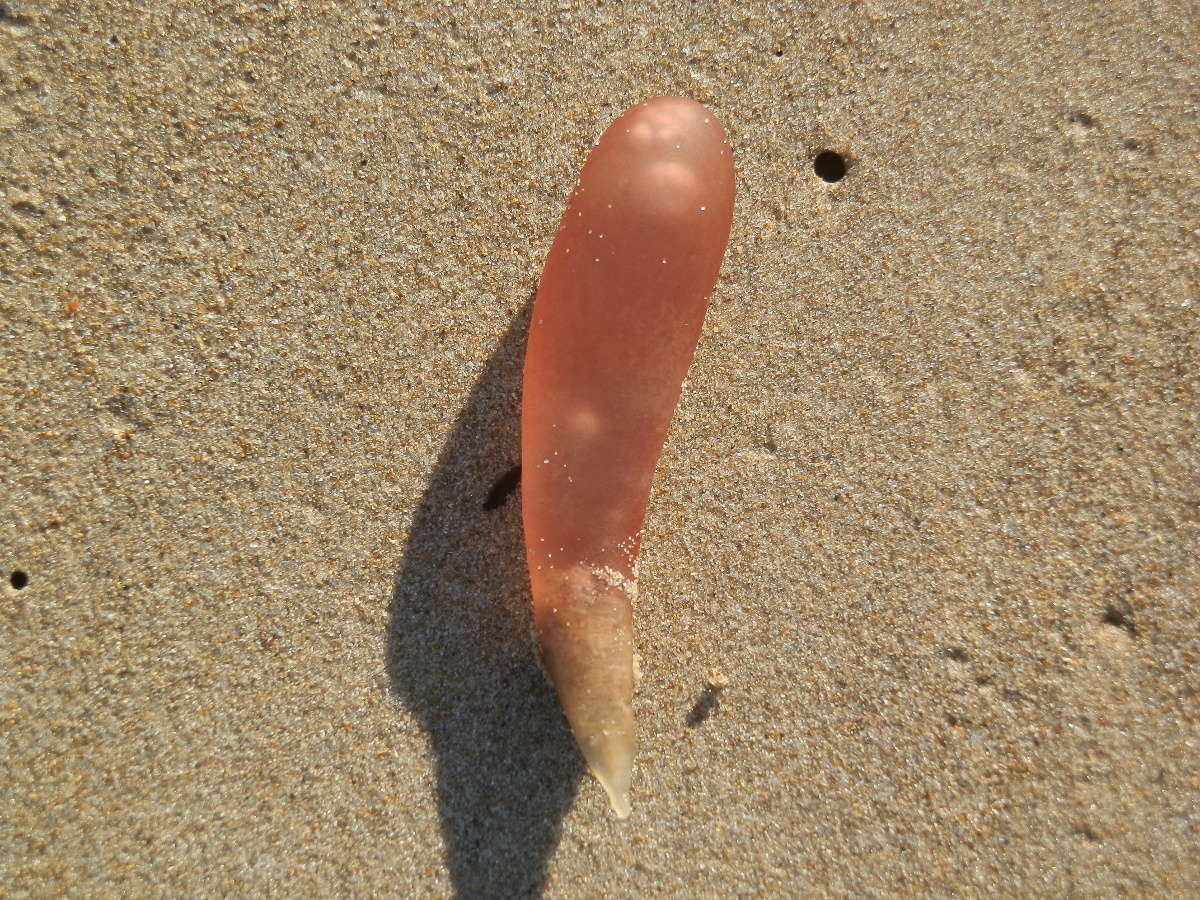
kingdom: Plantae
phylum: Rhodophyta
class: Florideophyceae
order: Rhodymeniales
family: Rhodymeniaceae
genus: Chrysymenia
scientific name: Chrysymenia brownii
